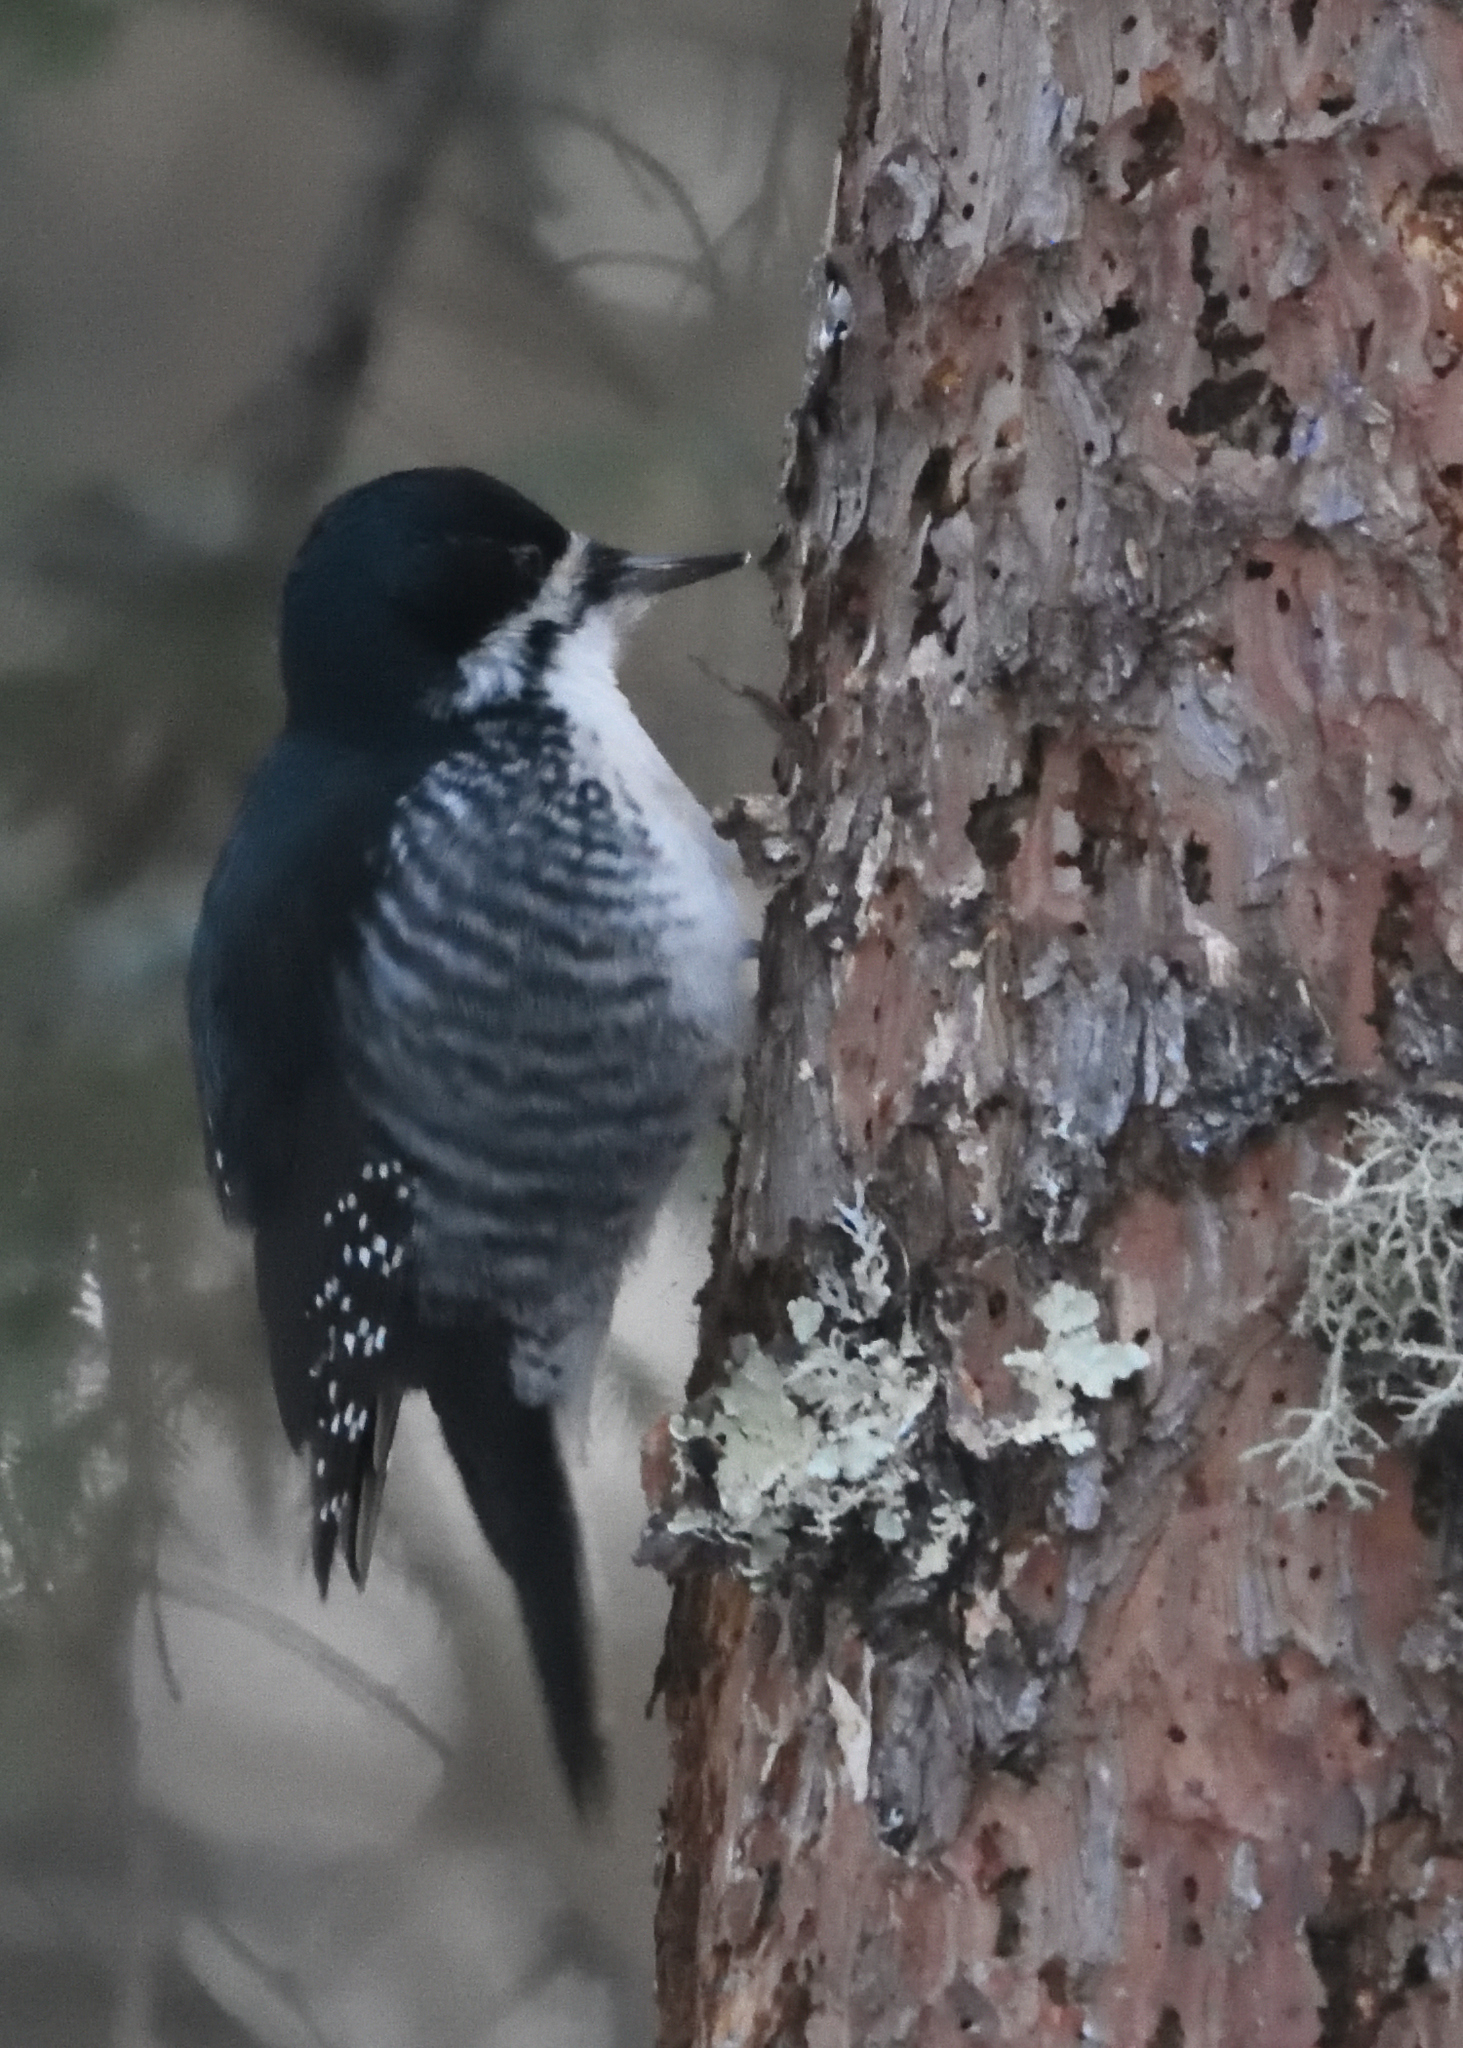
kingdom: Animalia
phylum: Chordata
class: Aves
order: Piciformes
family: Picidae
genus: Picoides
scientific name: Picoides arcticus
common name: Black-backed woodpecker
